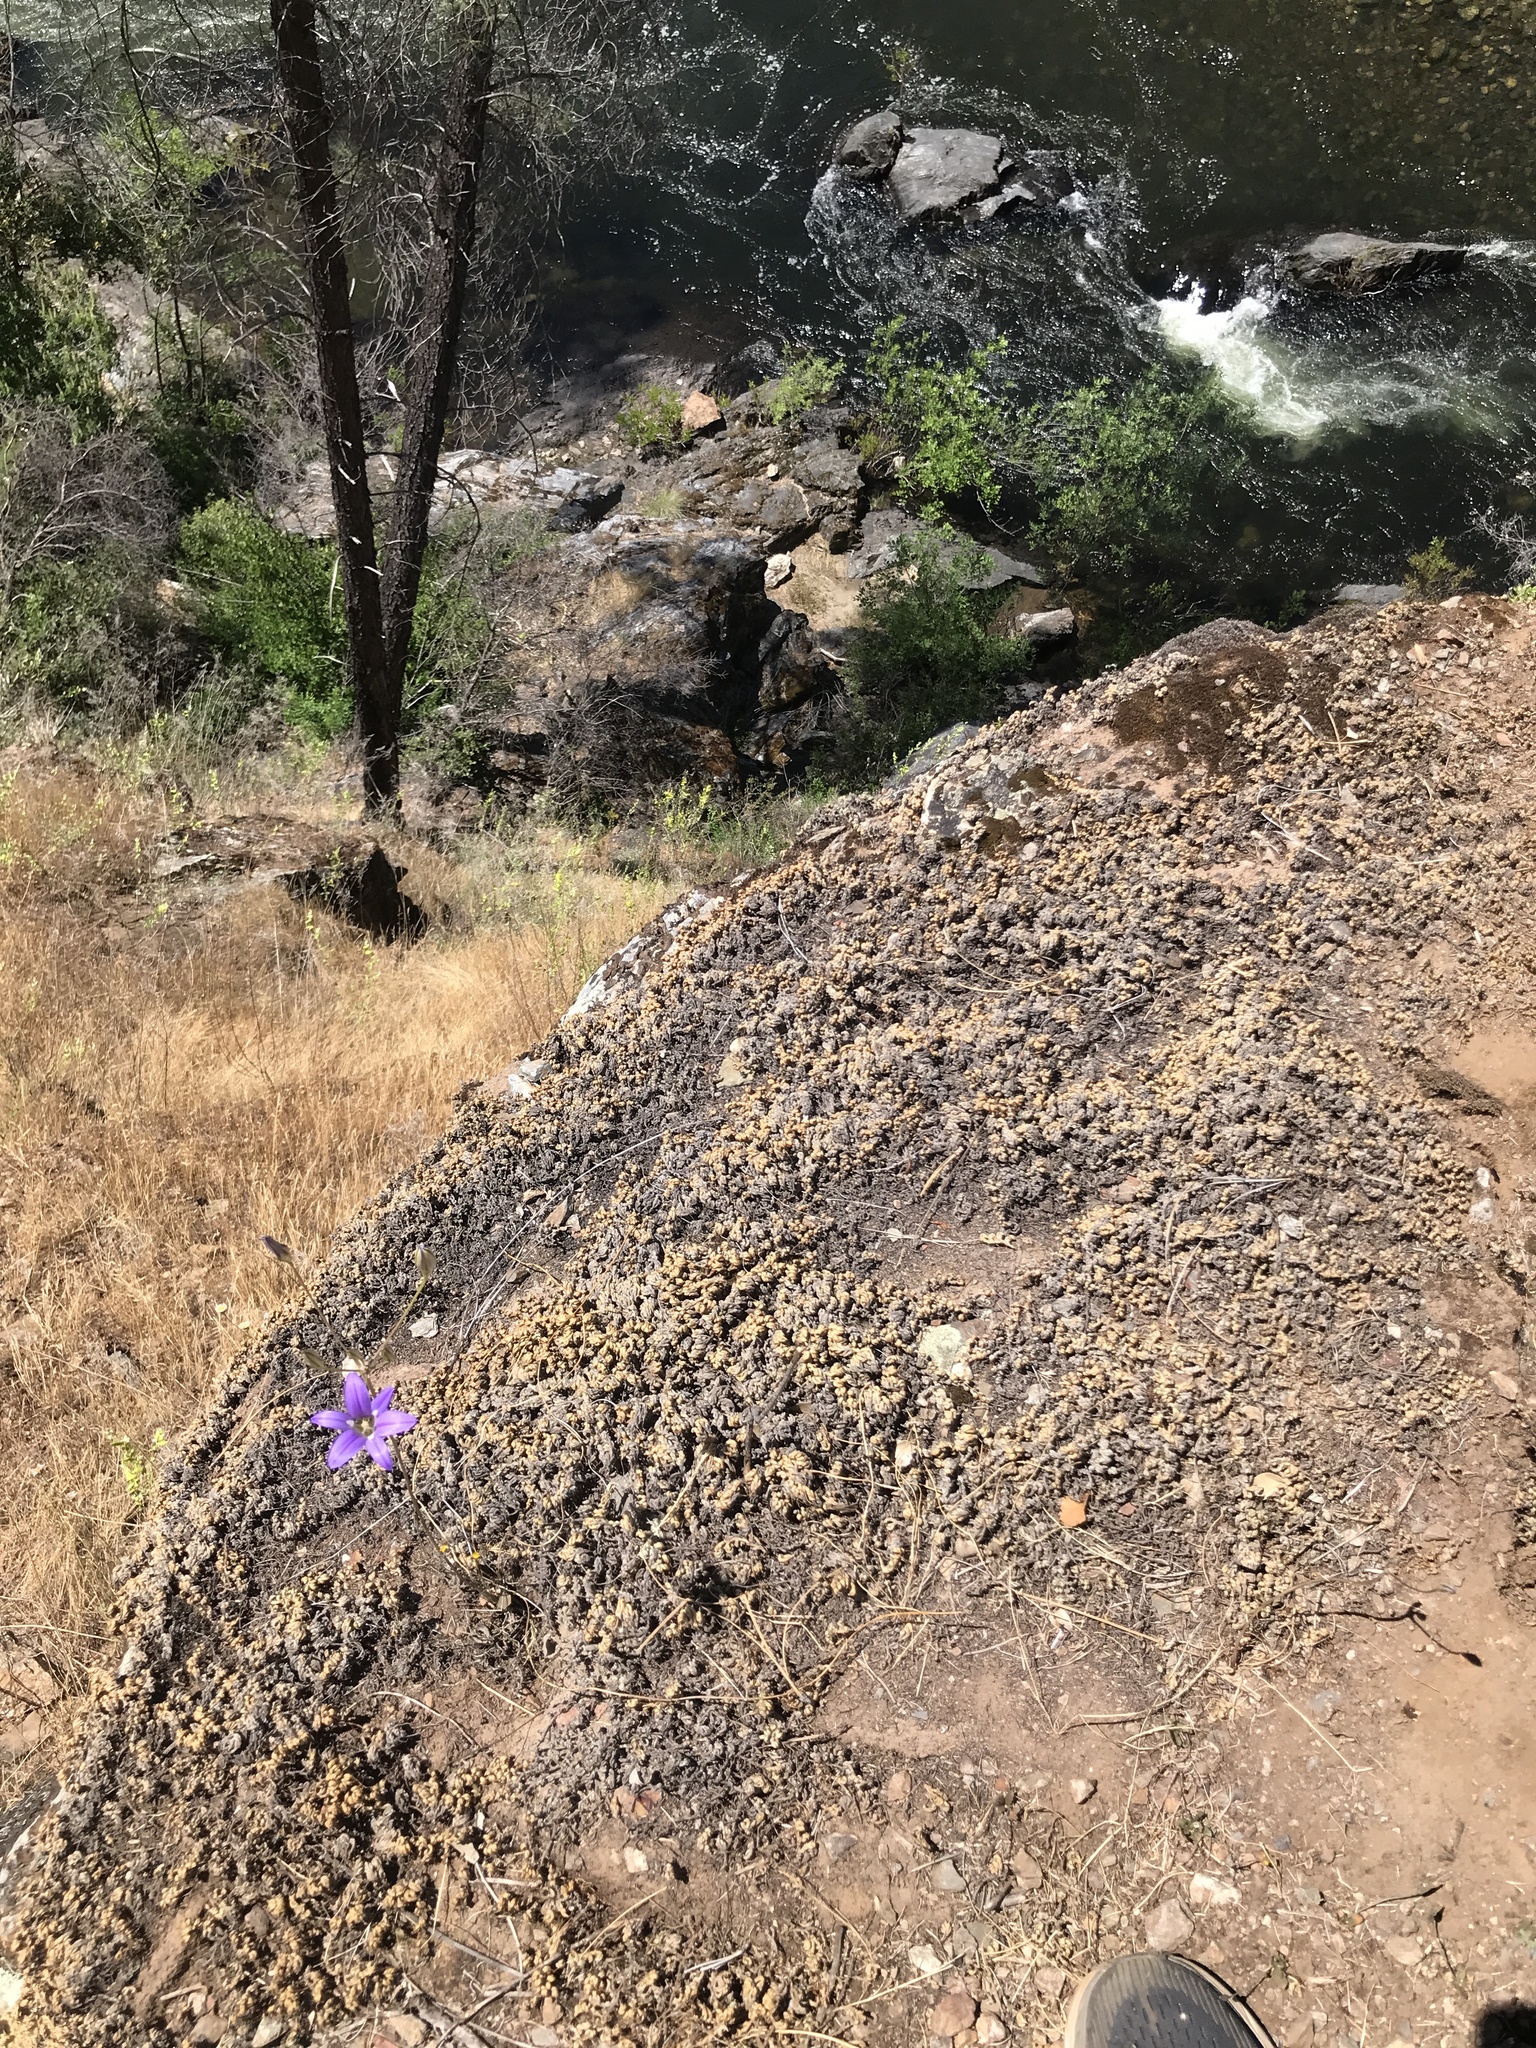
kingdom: Plantae
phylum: Tracheophyta
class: Liliopsida
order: Asparagales
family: Asparagaceae
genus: Brodiaea
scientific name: Brodiaea elegans
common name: Elegant cluster-lily
